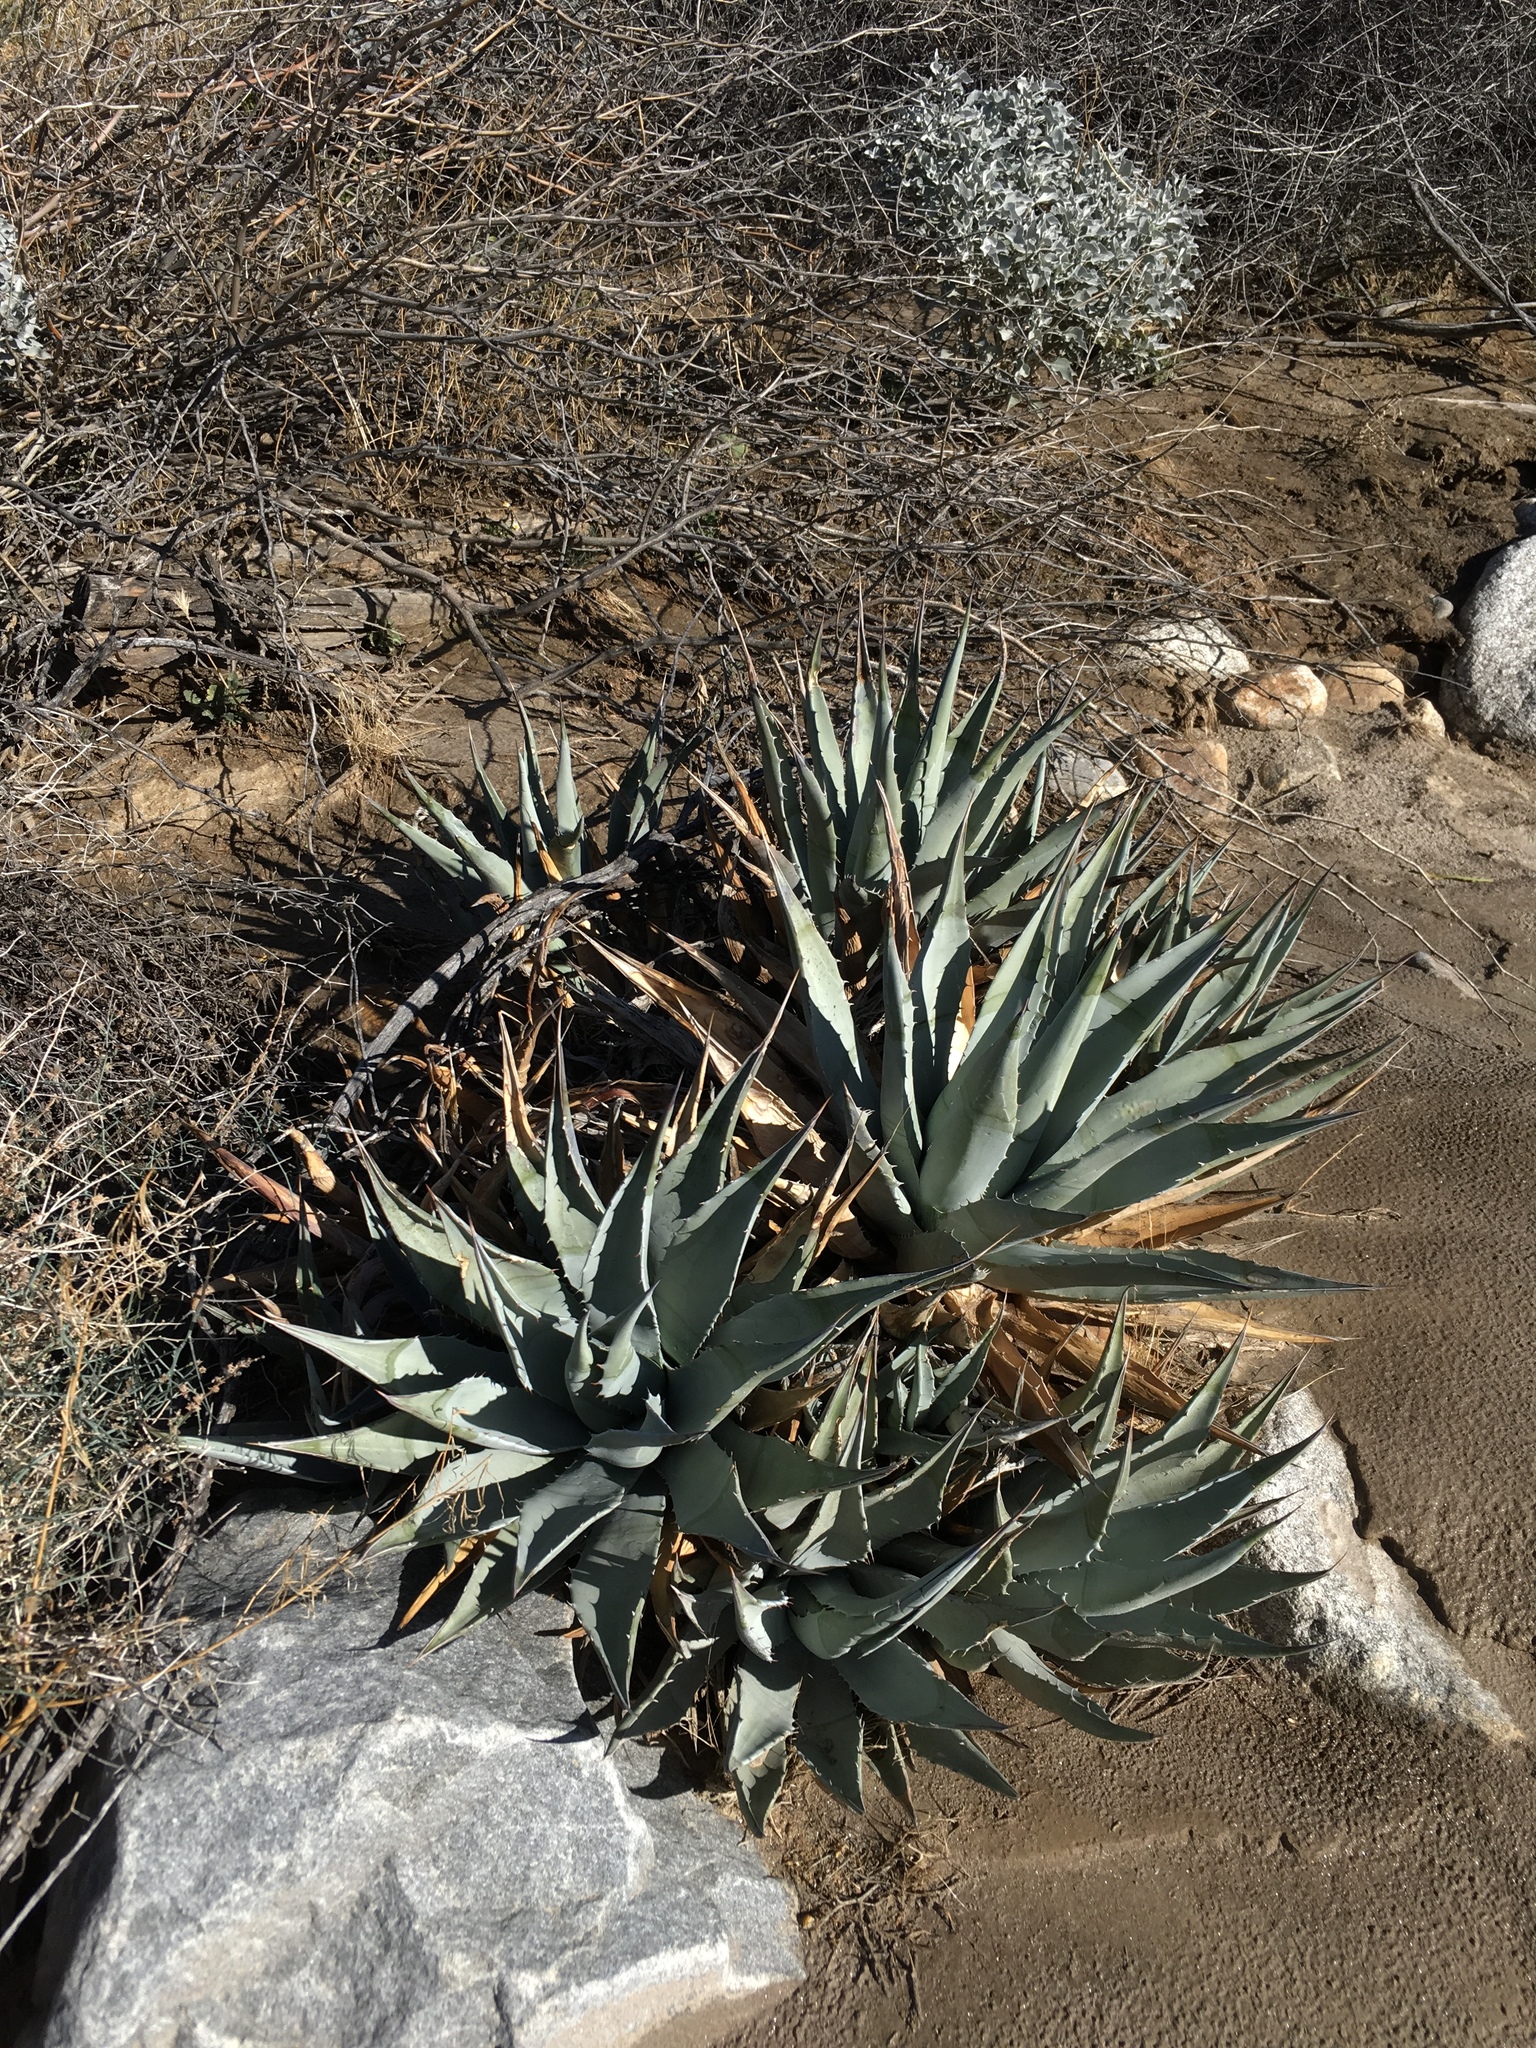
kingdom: Plantae
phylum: Tracheophyta
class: Liliopsida
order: Asparagales
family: Asparagaceae
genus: Agave
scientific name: Agave deserti
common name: Desert agave
